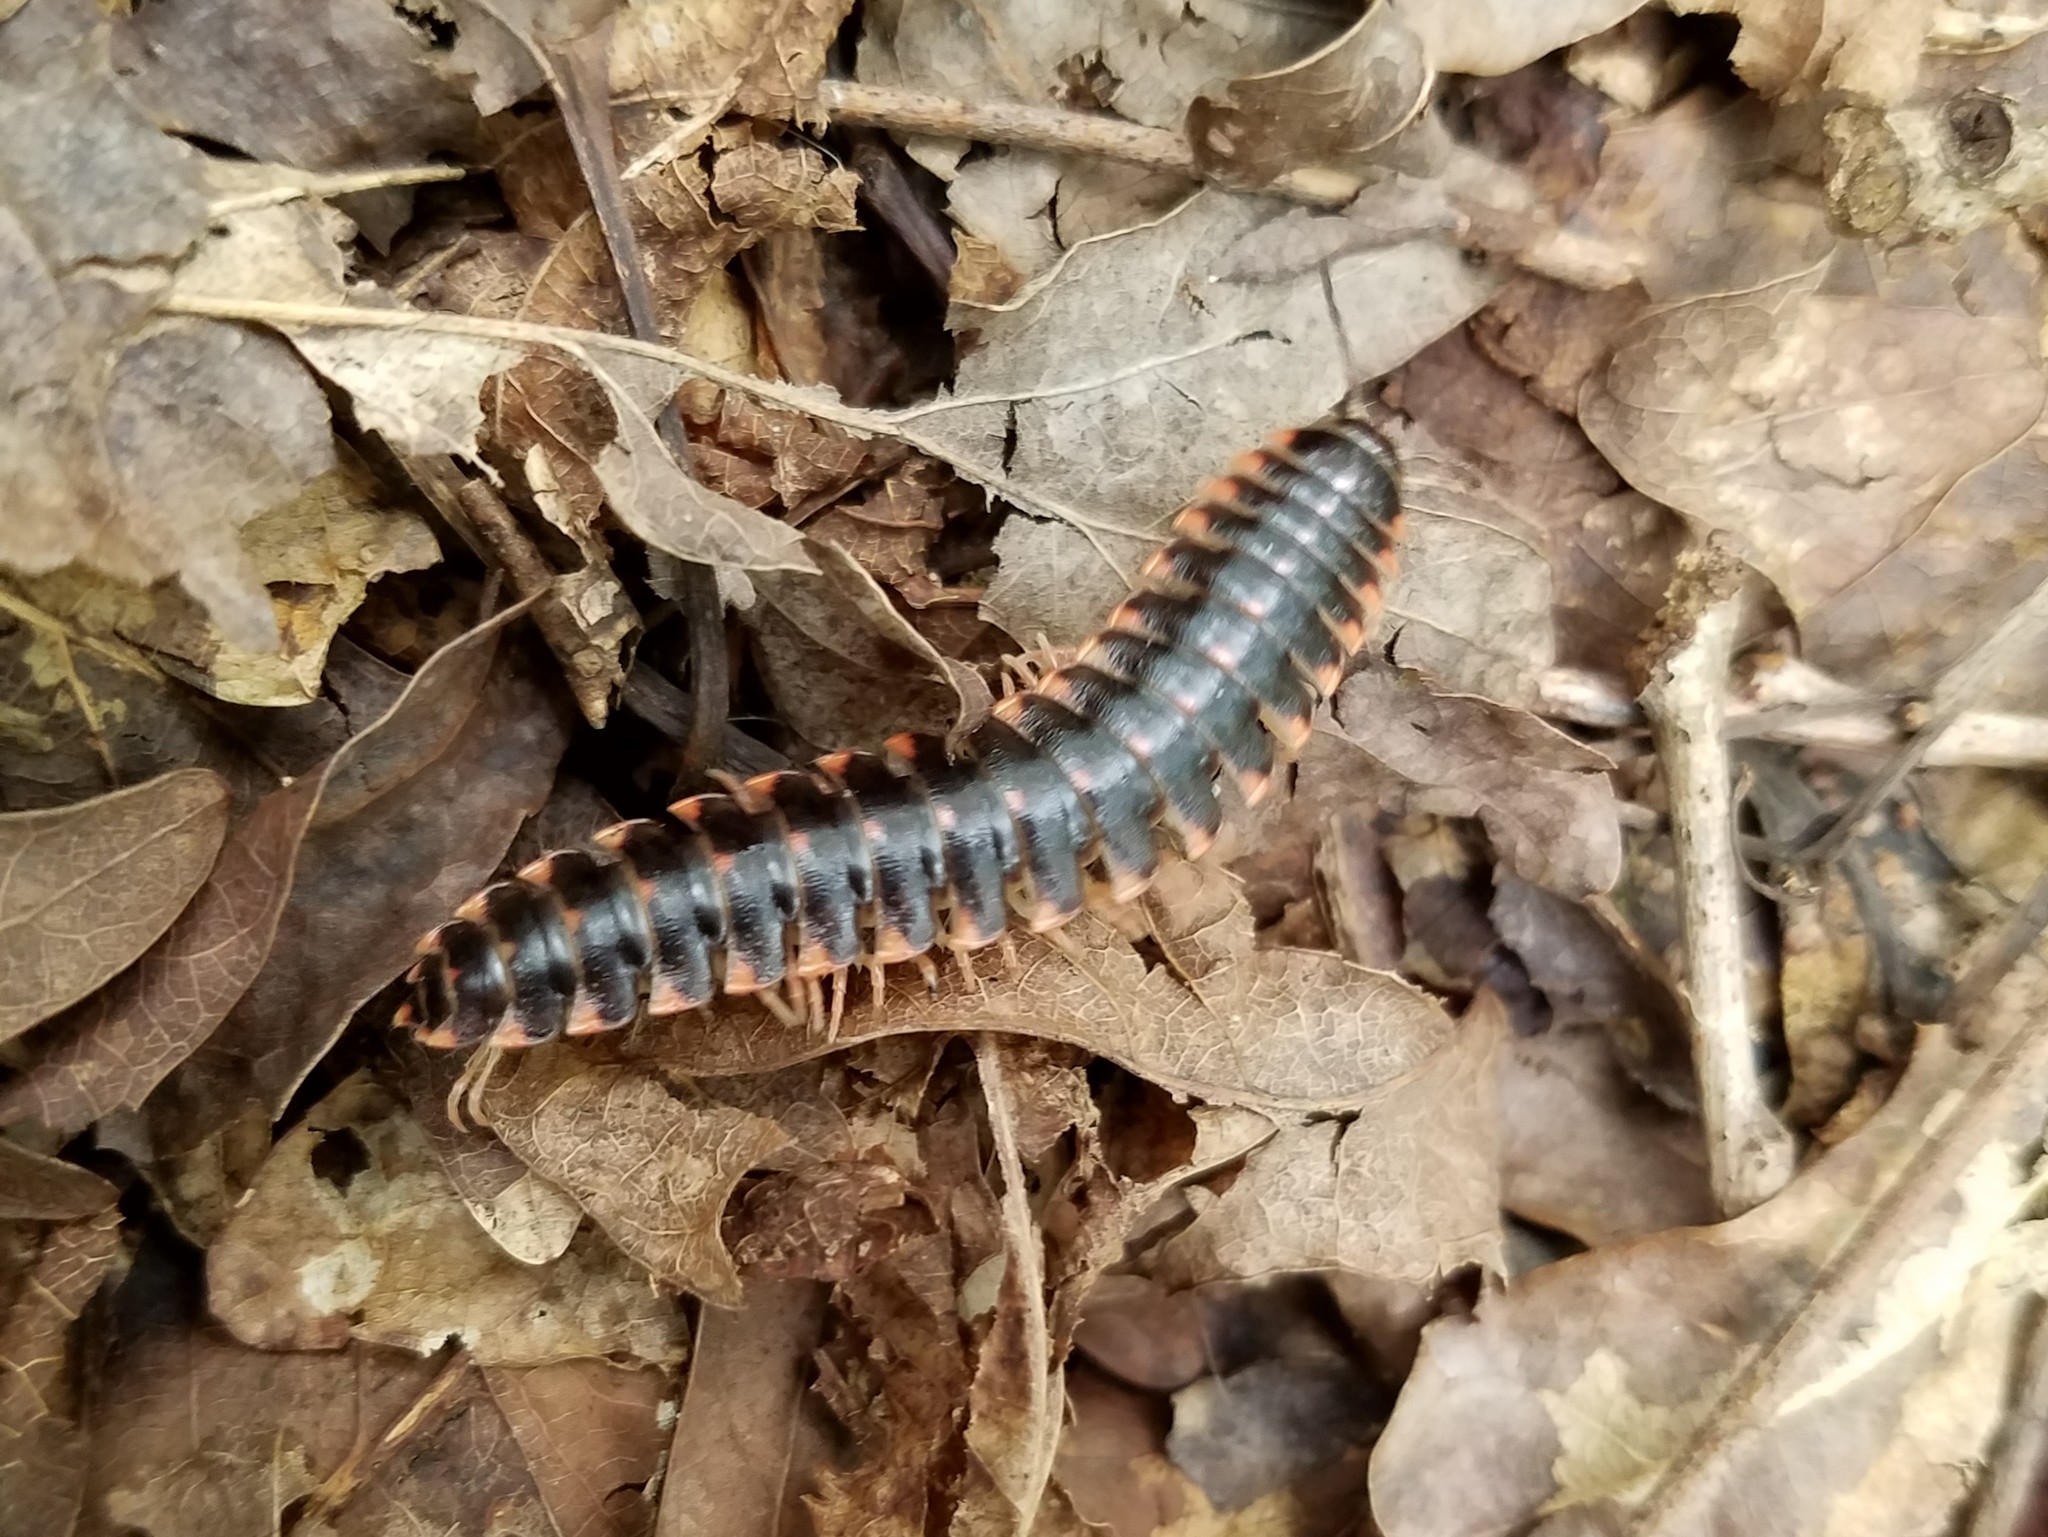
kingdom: Animalia
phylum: Arthropoda
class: Diplopoda
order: Polydesmida
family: Xystodesmidae
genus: Cherokia
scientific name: Cherokia georgiana
